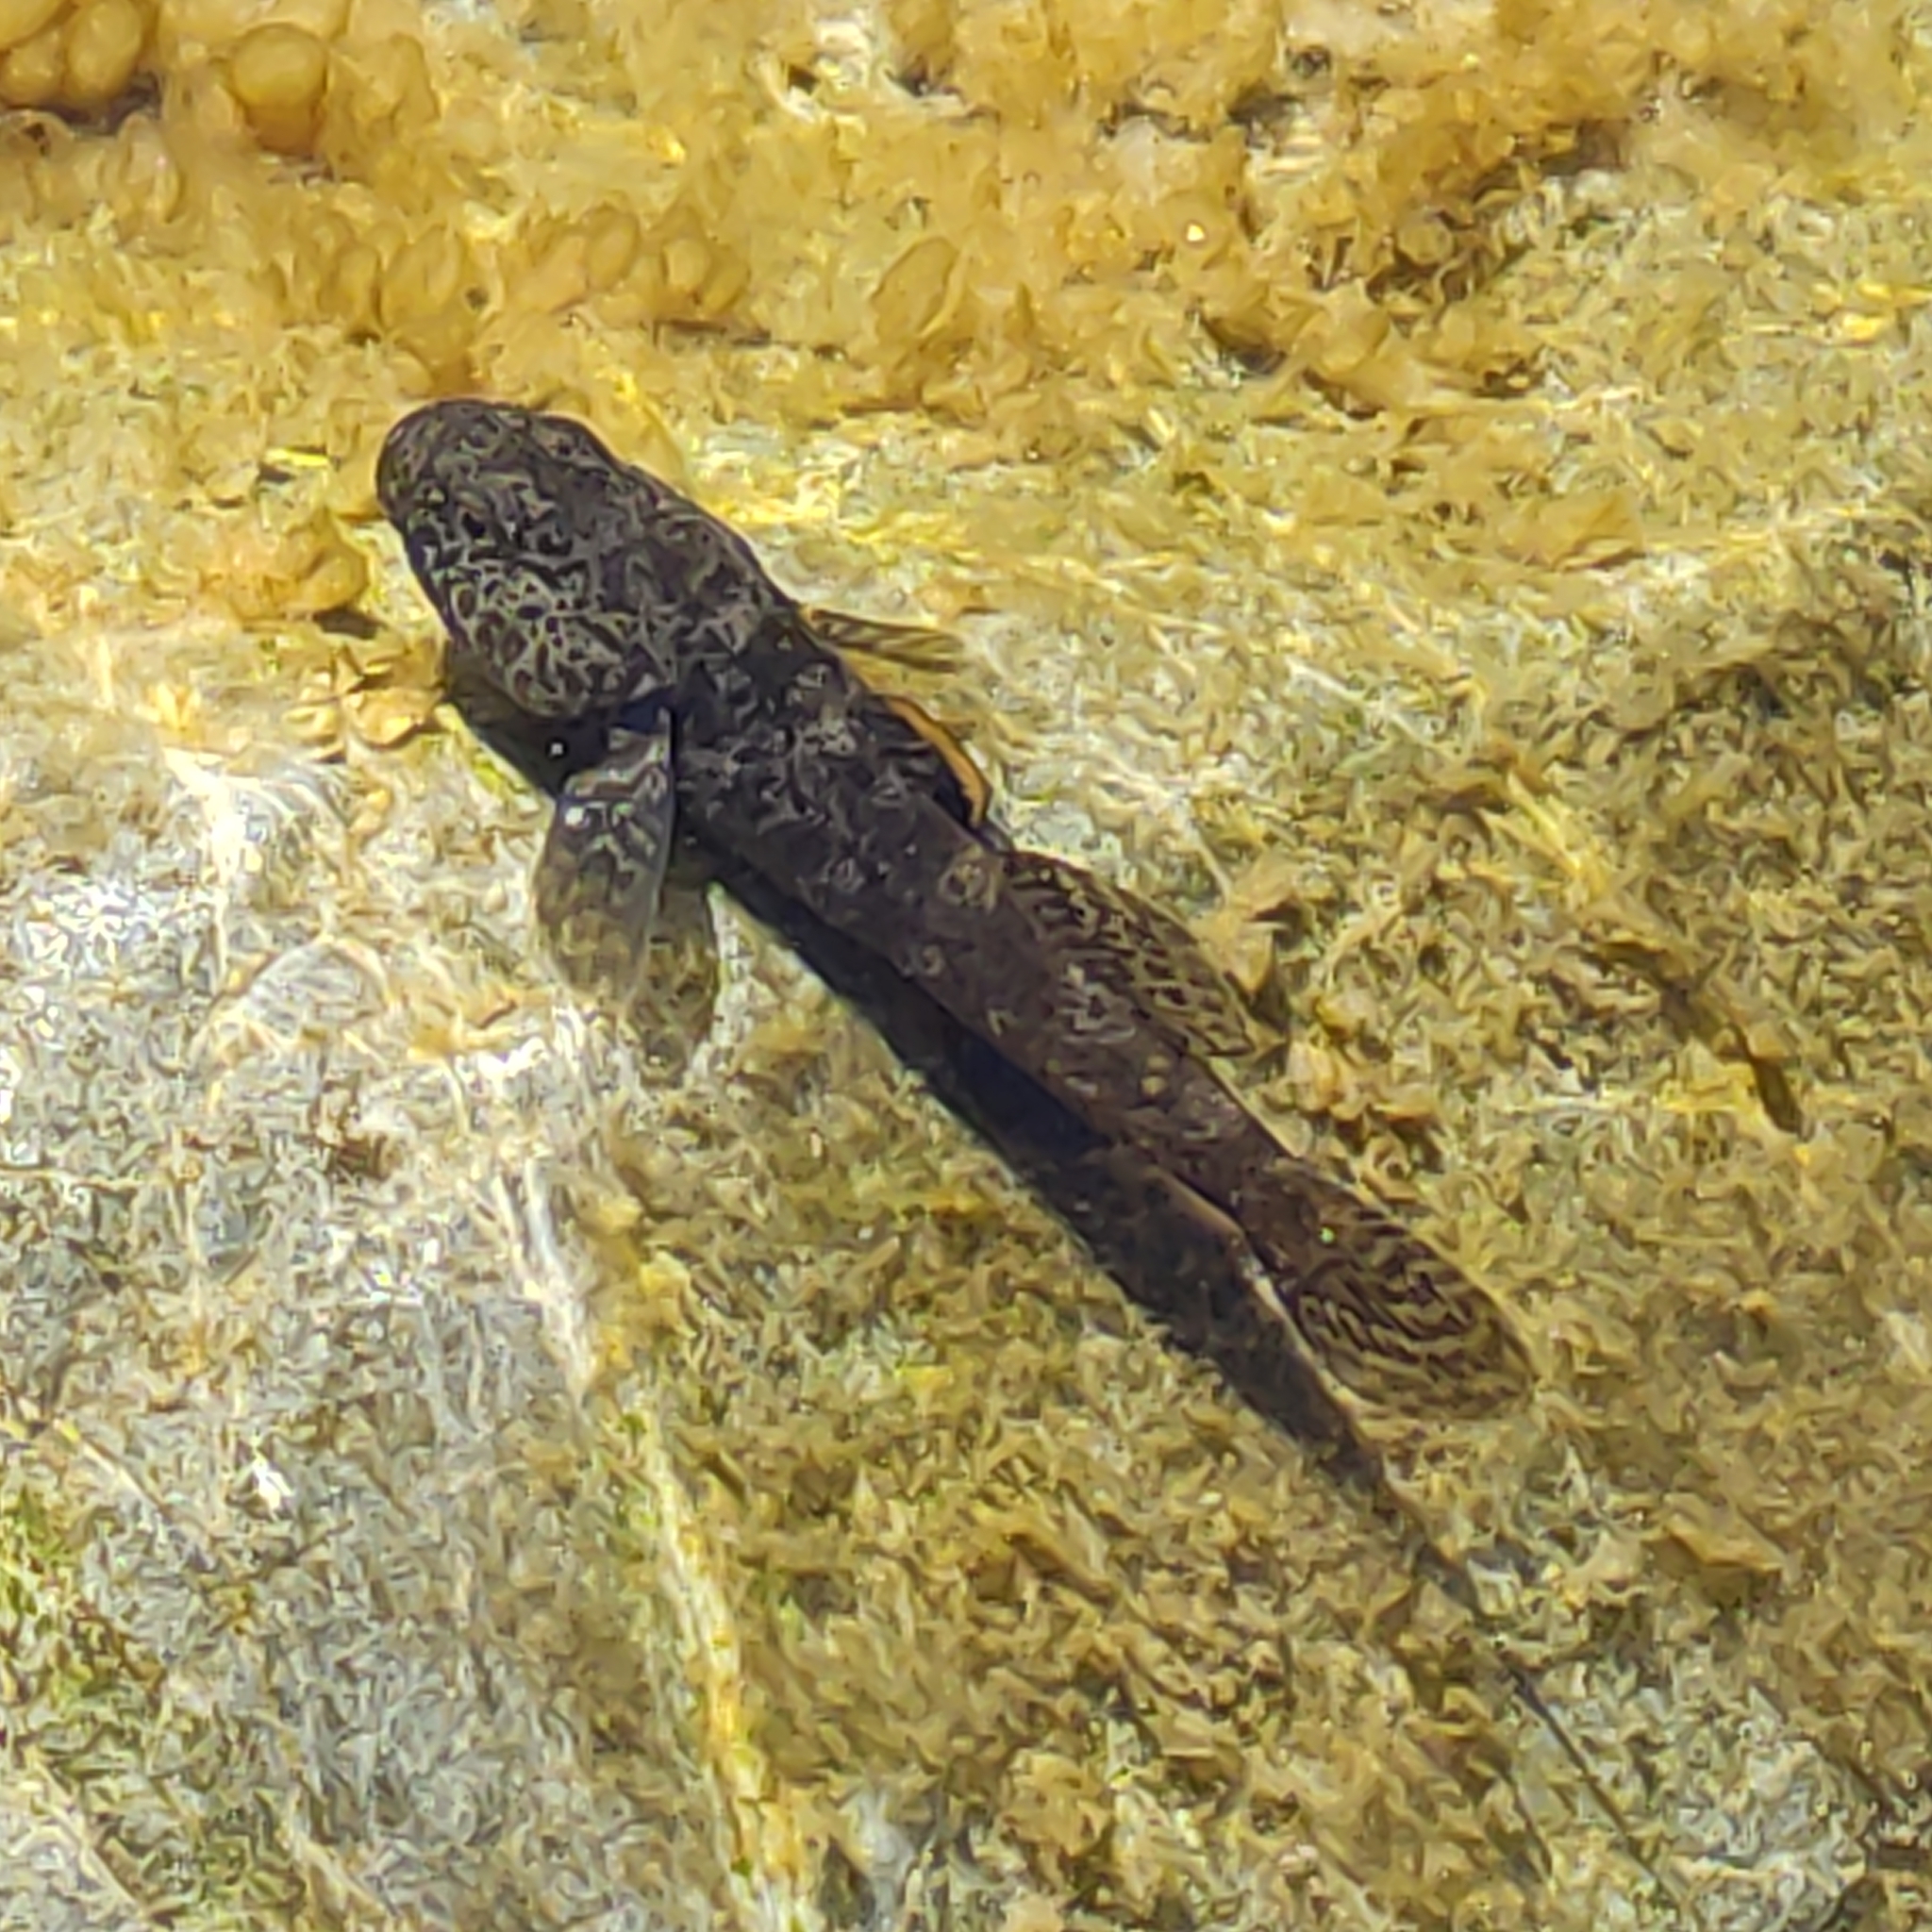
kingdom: Animalia
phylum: Chordata
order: Perciformes
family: Eleotridae
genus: Gobiomorphus
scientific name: Gobiomorphus breviceps
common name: Upland bully
